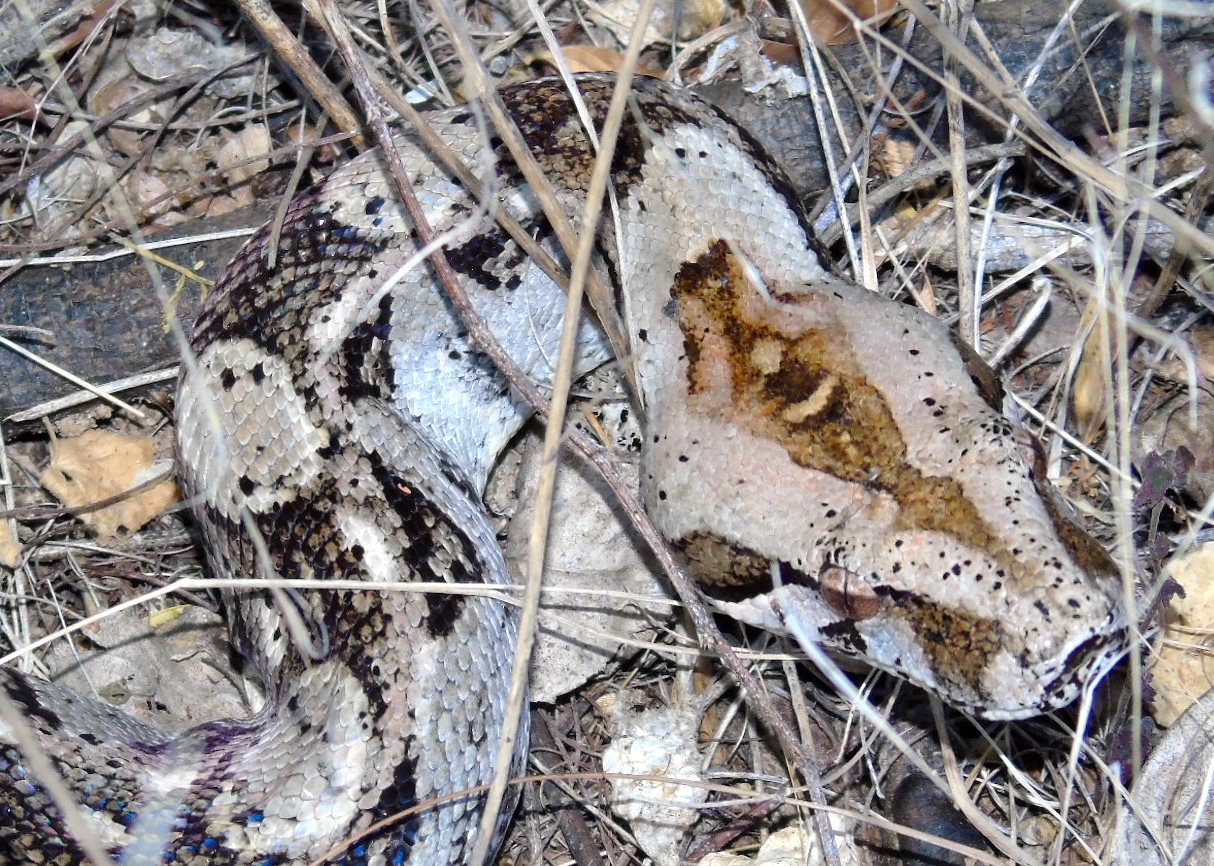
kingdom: Animalia
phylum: Chordata
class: Squamata
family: Boidae
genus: Boa
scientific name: Boa
